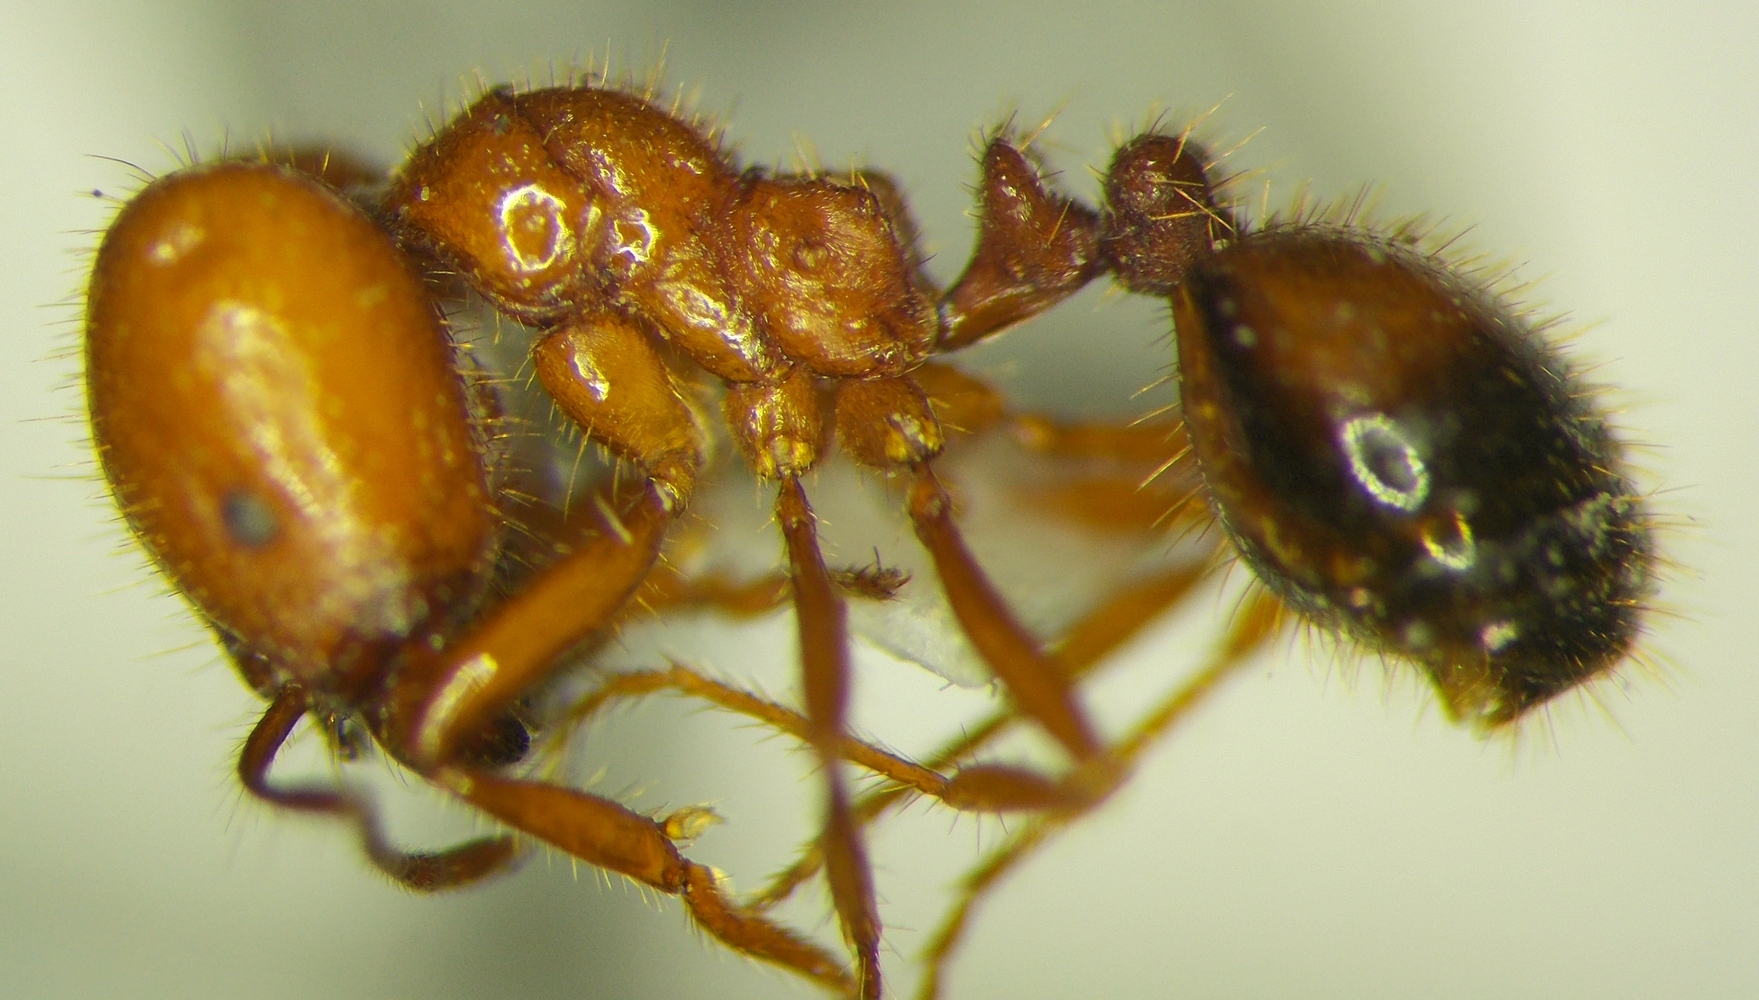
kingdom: Animalia
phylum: Arthropoda
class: Insecta
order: Hymenoptera
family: Formicidae
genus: Solenopsis
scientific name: Solenopsis geminata
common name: Tropical fire ant
